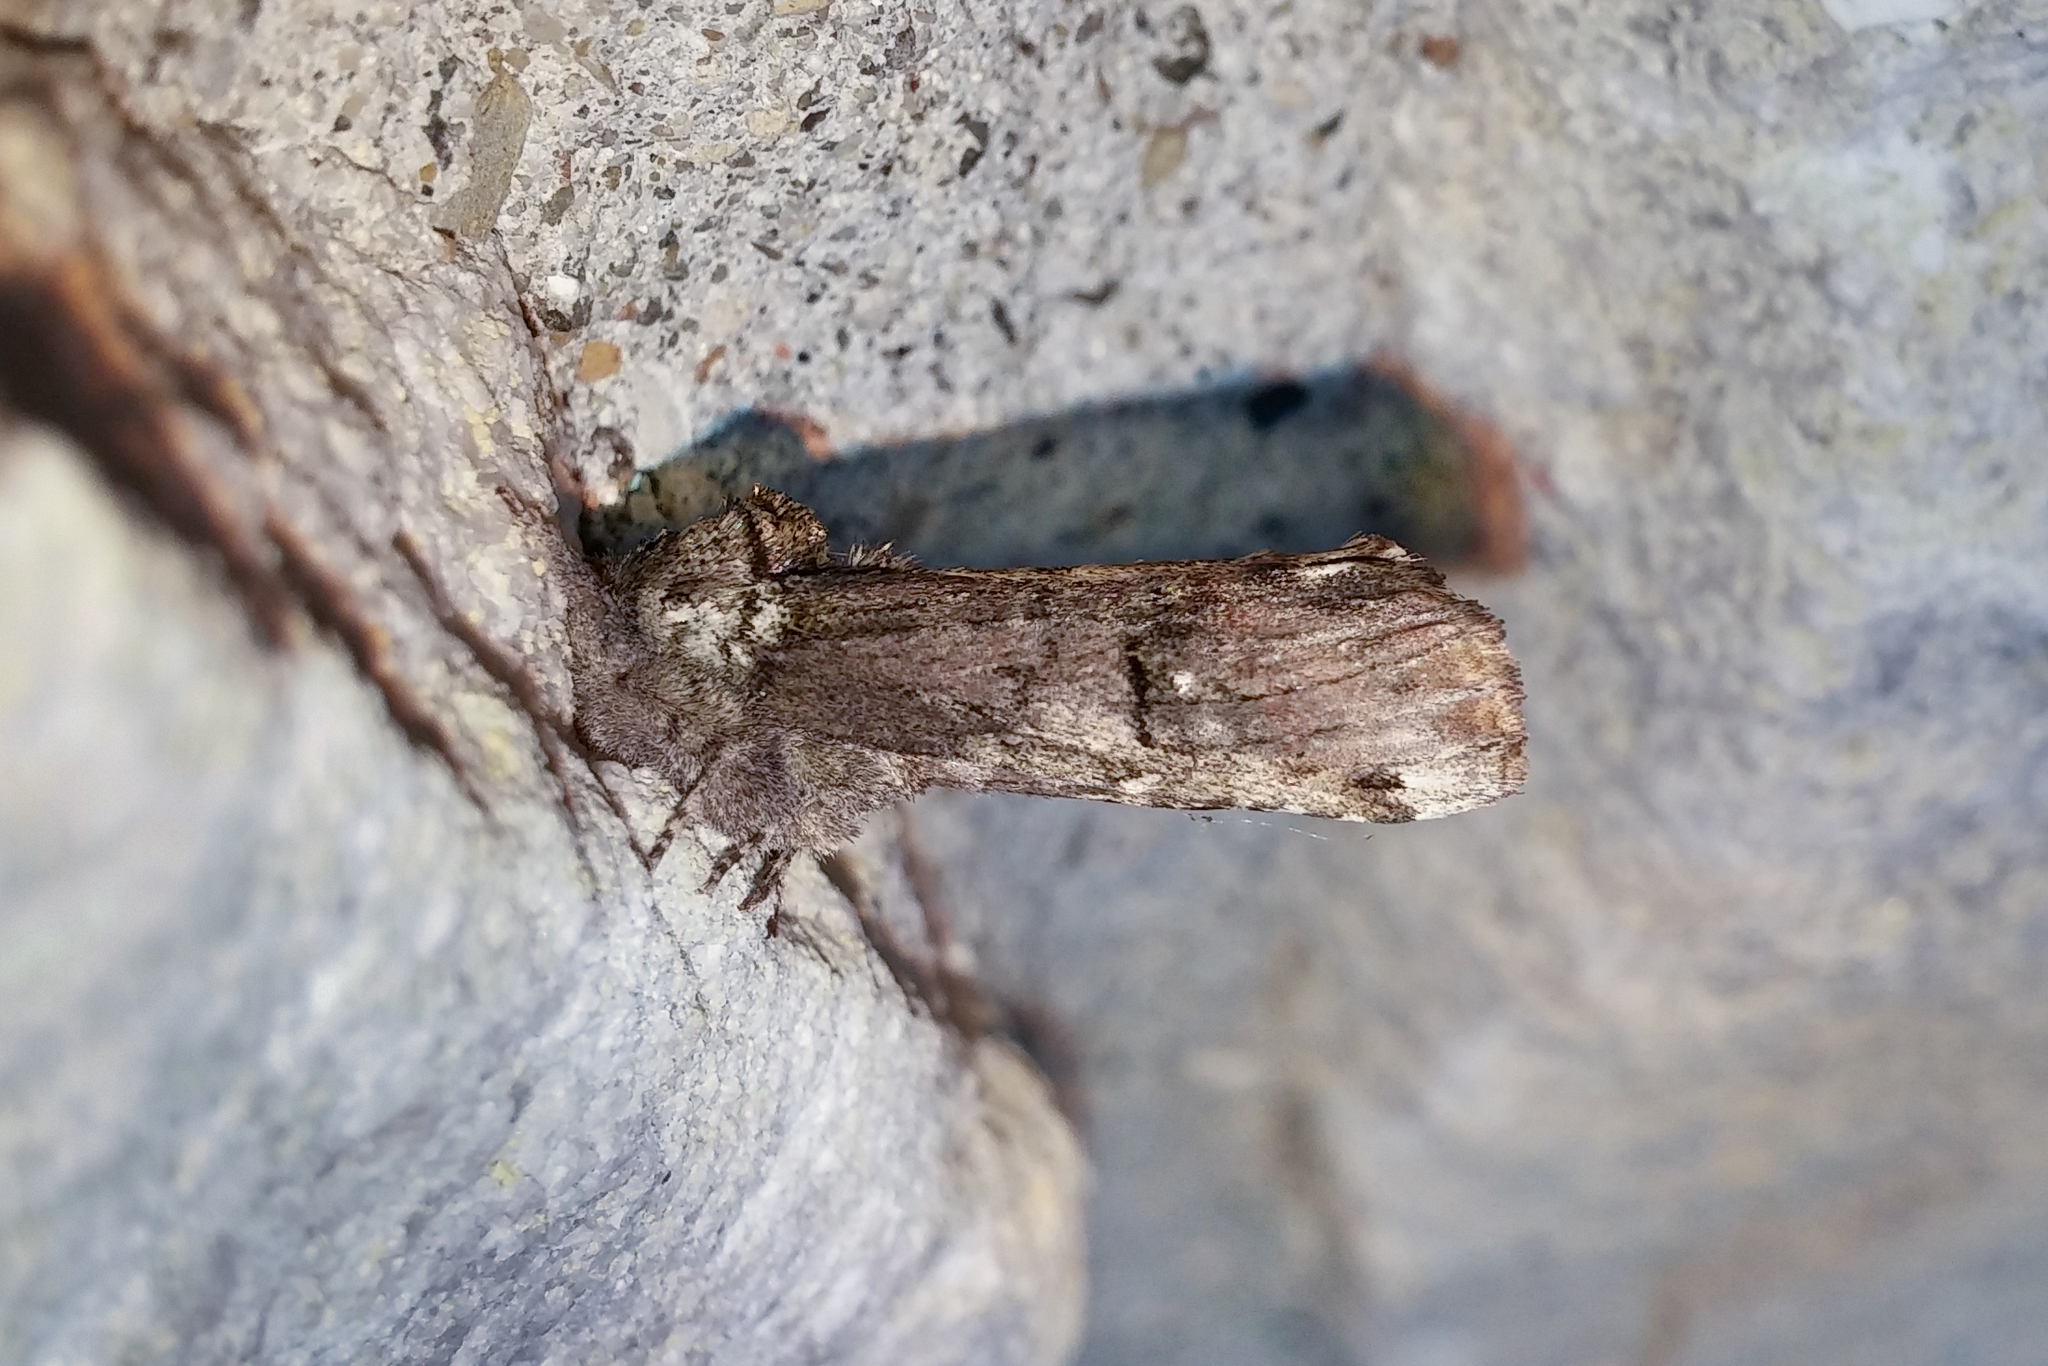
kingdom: Animalia
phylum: Arthropoda
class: Insecta
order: Lepidoptera
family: Notodontidae
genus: Schizura
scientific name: Schizura
